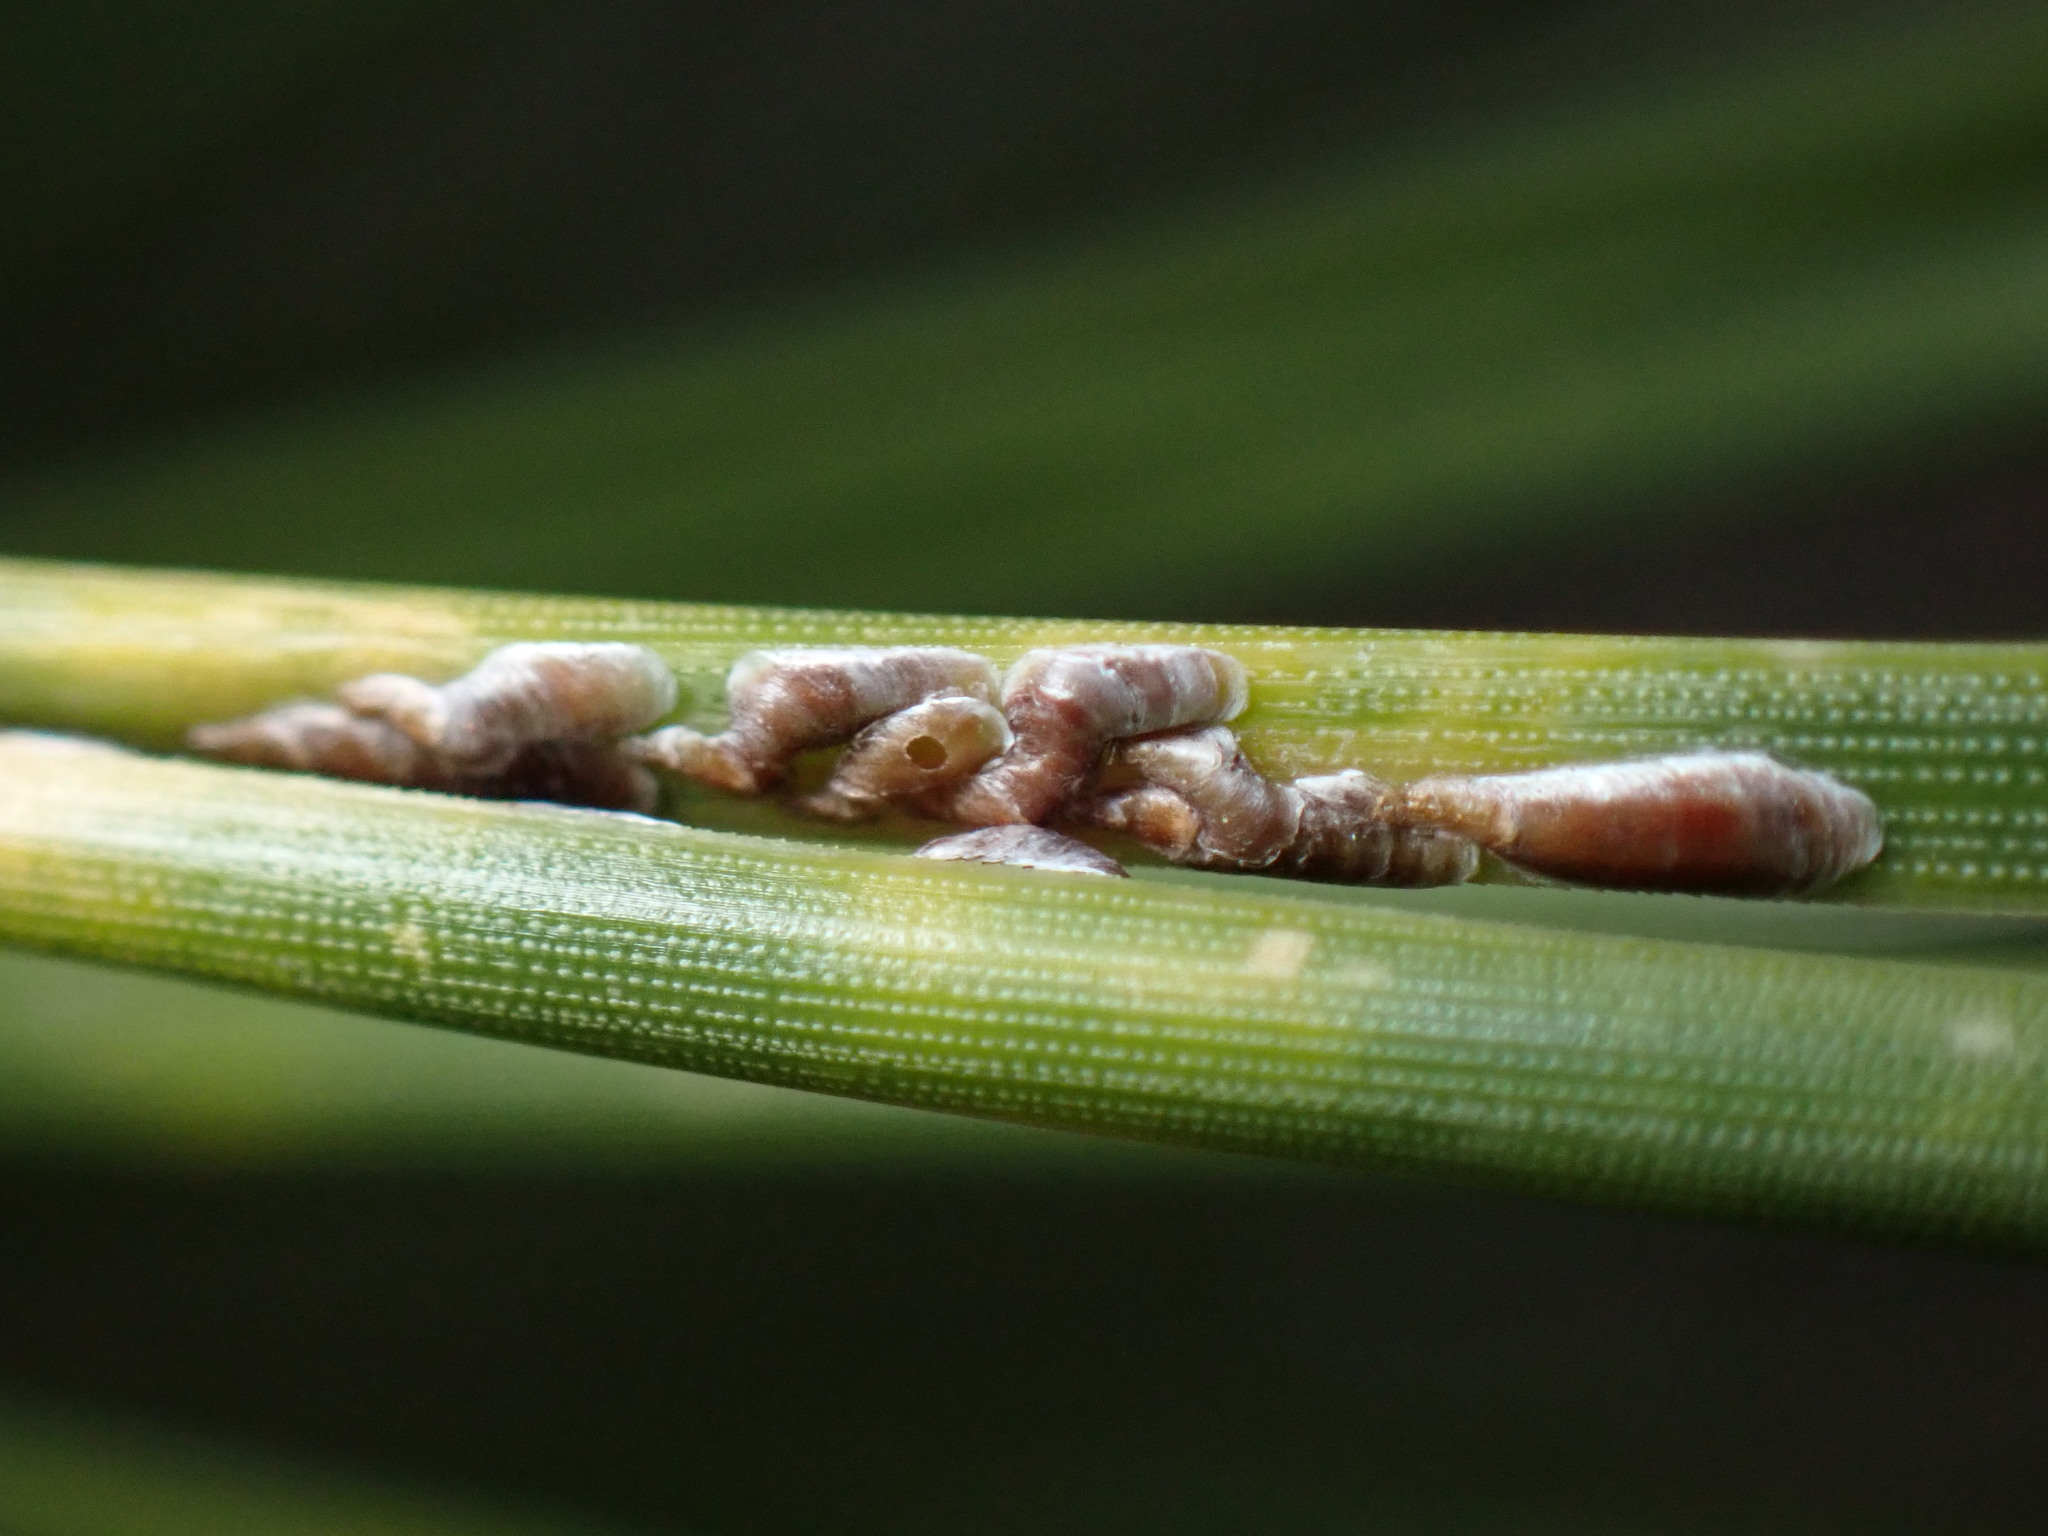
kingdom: Animalia
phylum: Arthropoda
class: Insecta
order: Hemiptera
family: Diaspididae
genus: Lepidosaphes
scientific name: Lepidosaphes pini
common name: Pine oystershell scale
